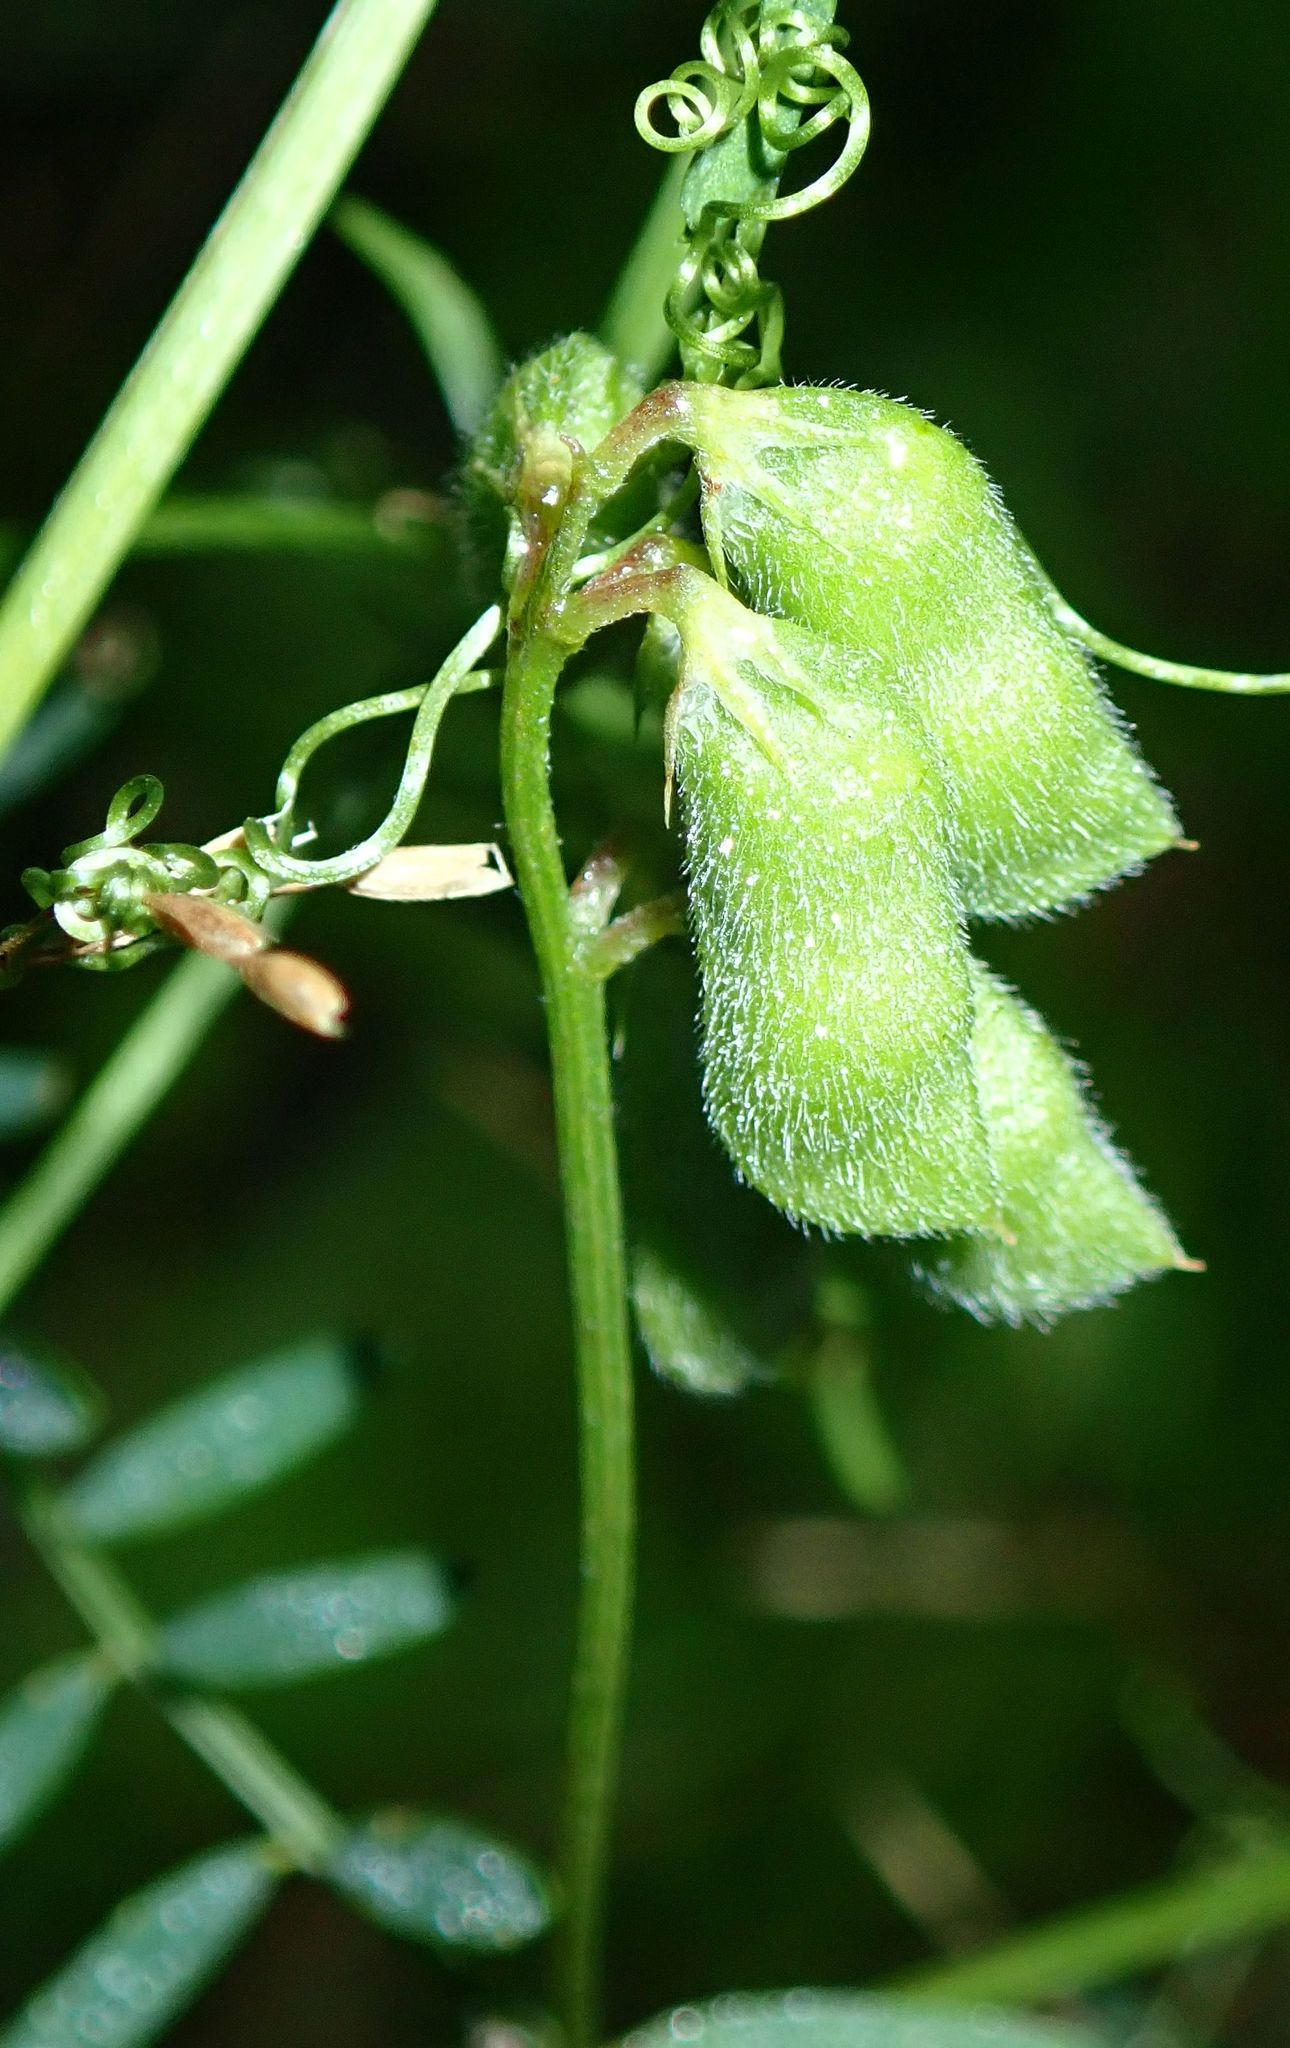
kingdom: Plantae
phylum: Tracheophyta
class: Magnoliopsida
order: Fabales
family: Fabaceae
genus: Vicia
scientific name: Vicia hirsuta
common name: Tiny vetch
